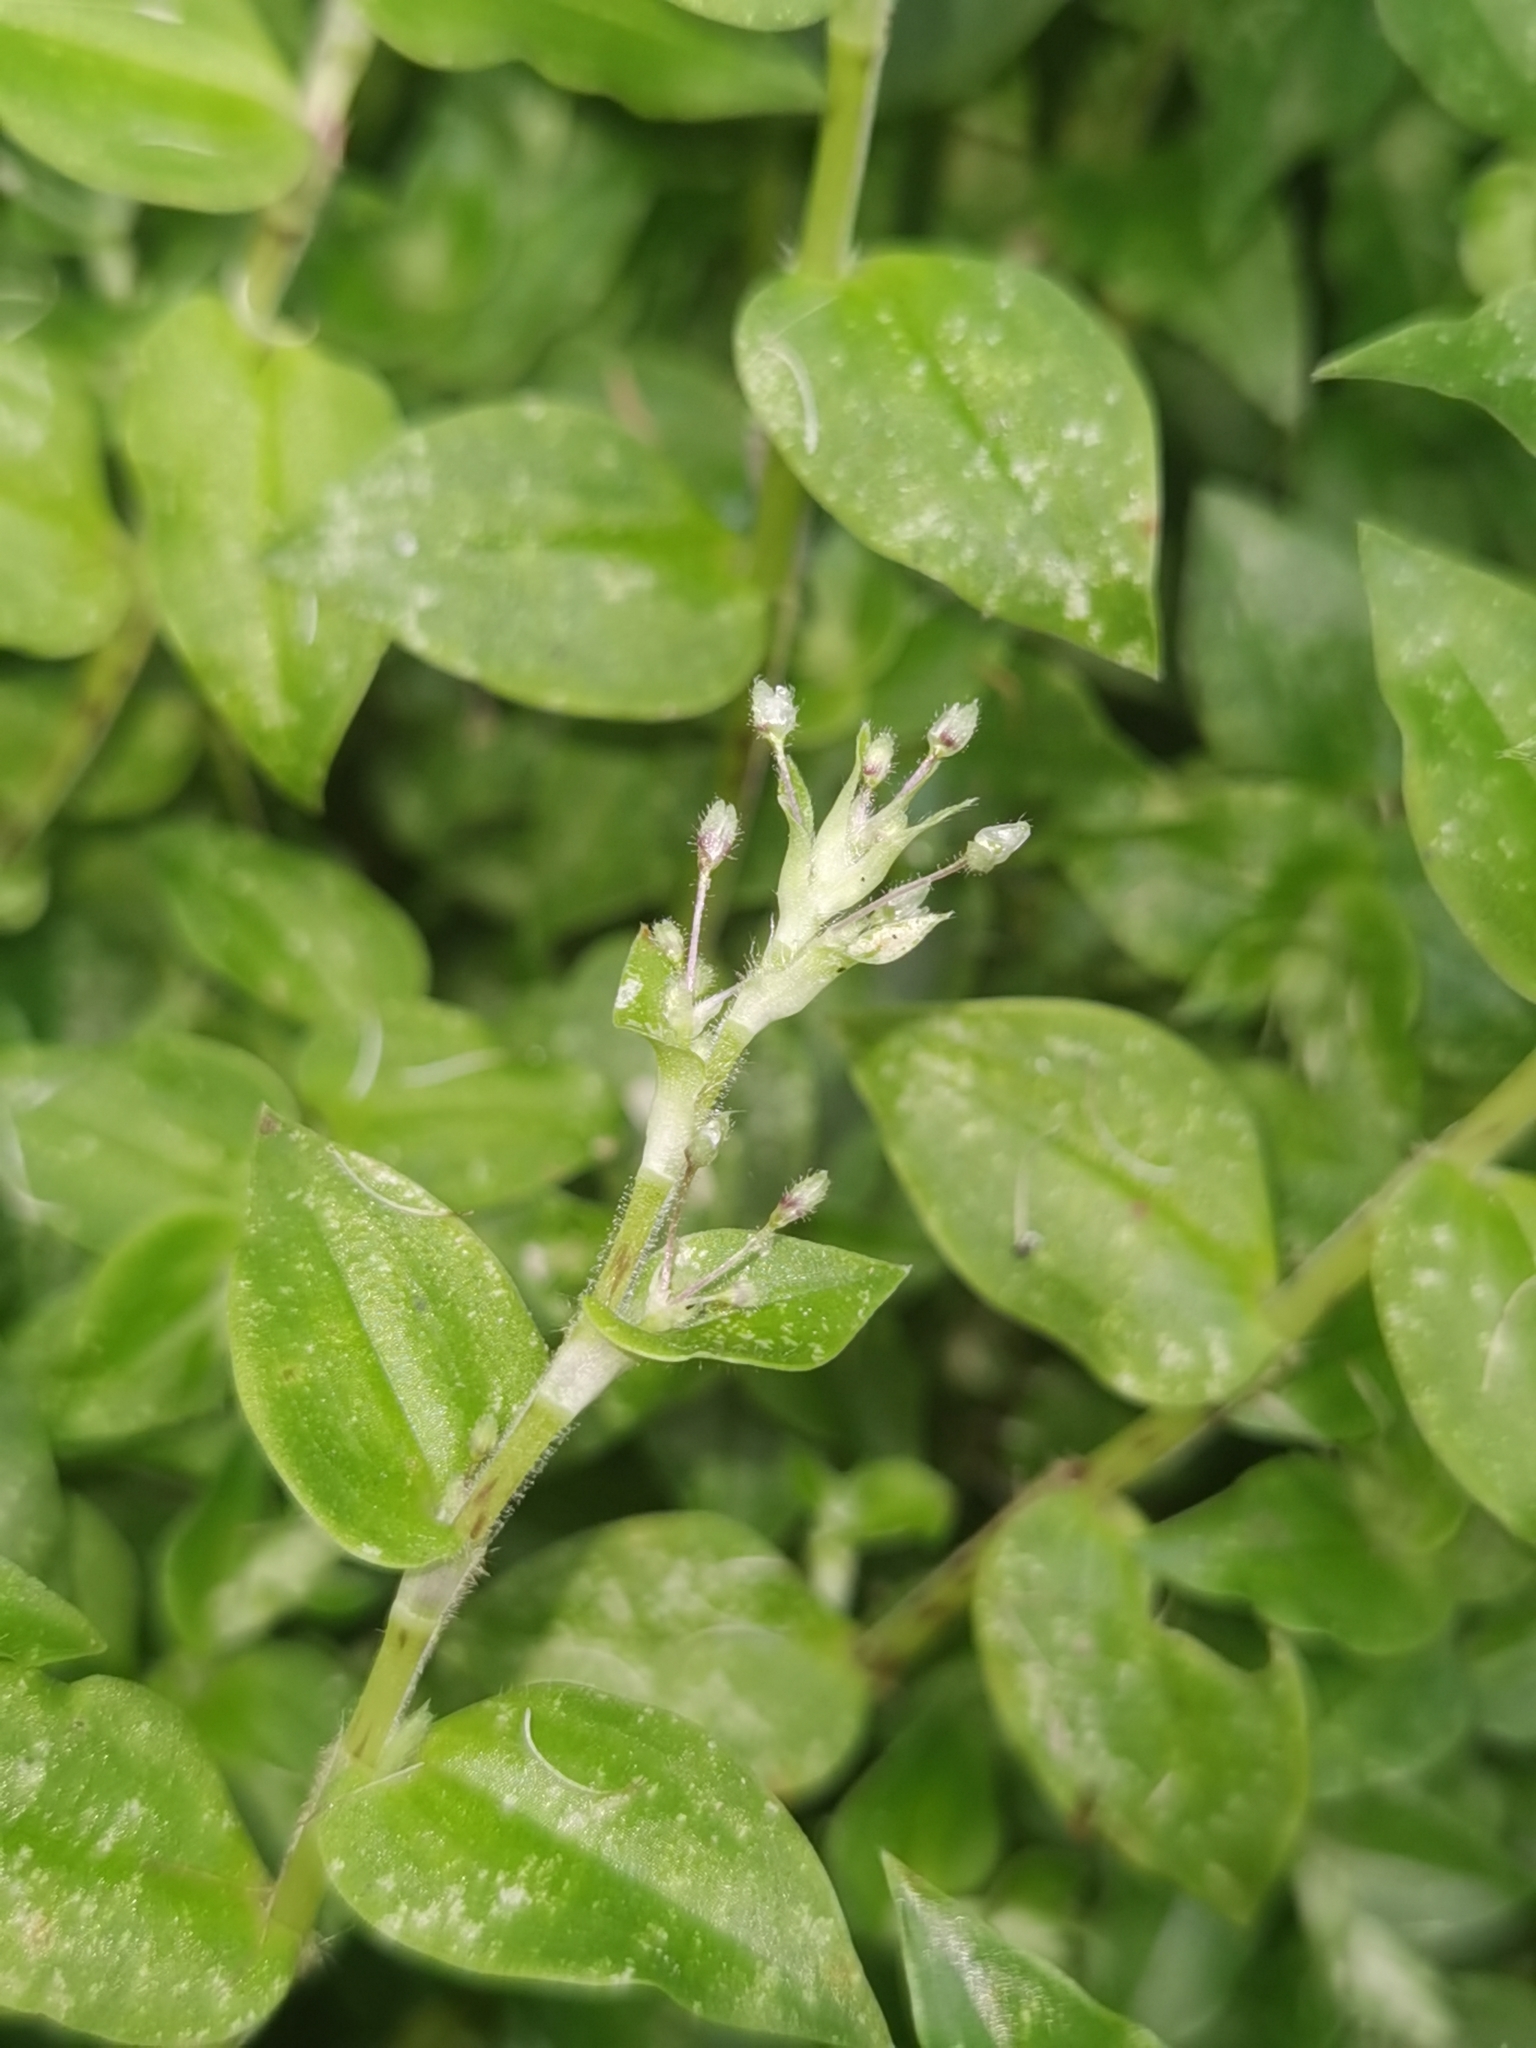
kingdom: Plantae
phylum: Tracheophyta
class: Liliopsida
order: Commelinales
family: Commelinaceae
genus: Callisia
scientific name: Callisia monandra
